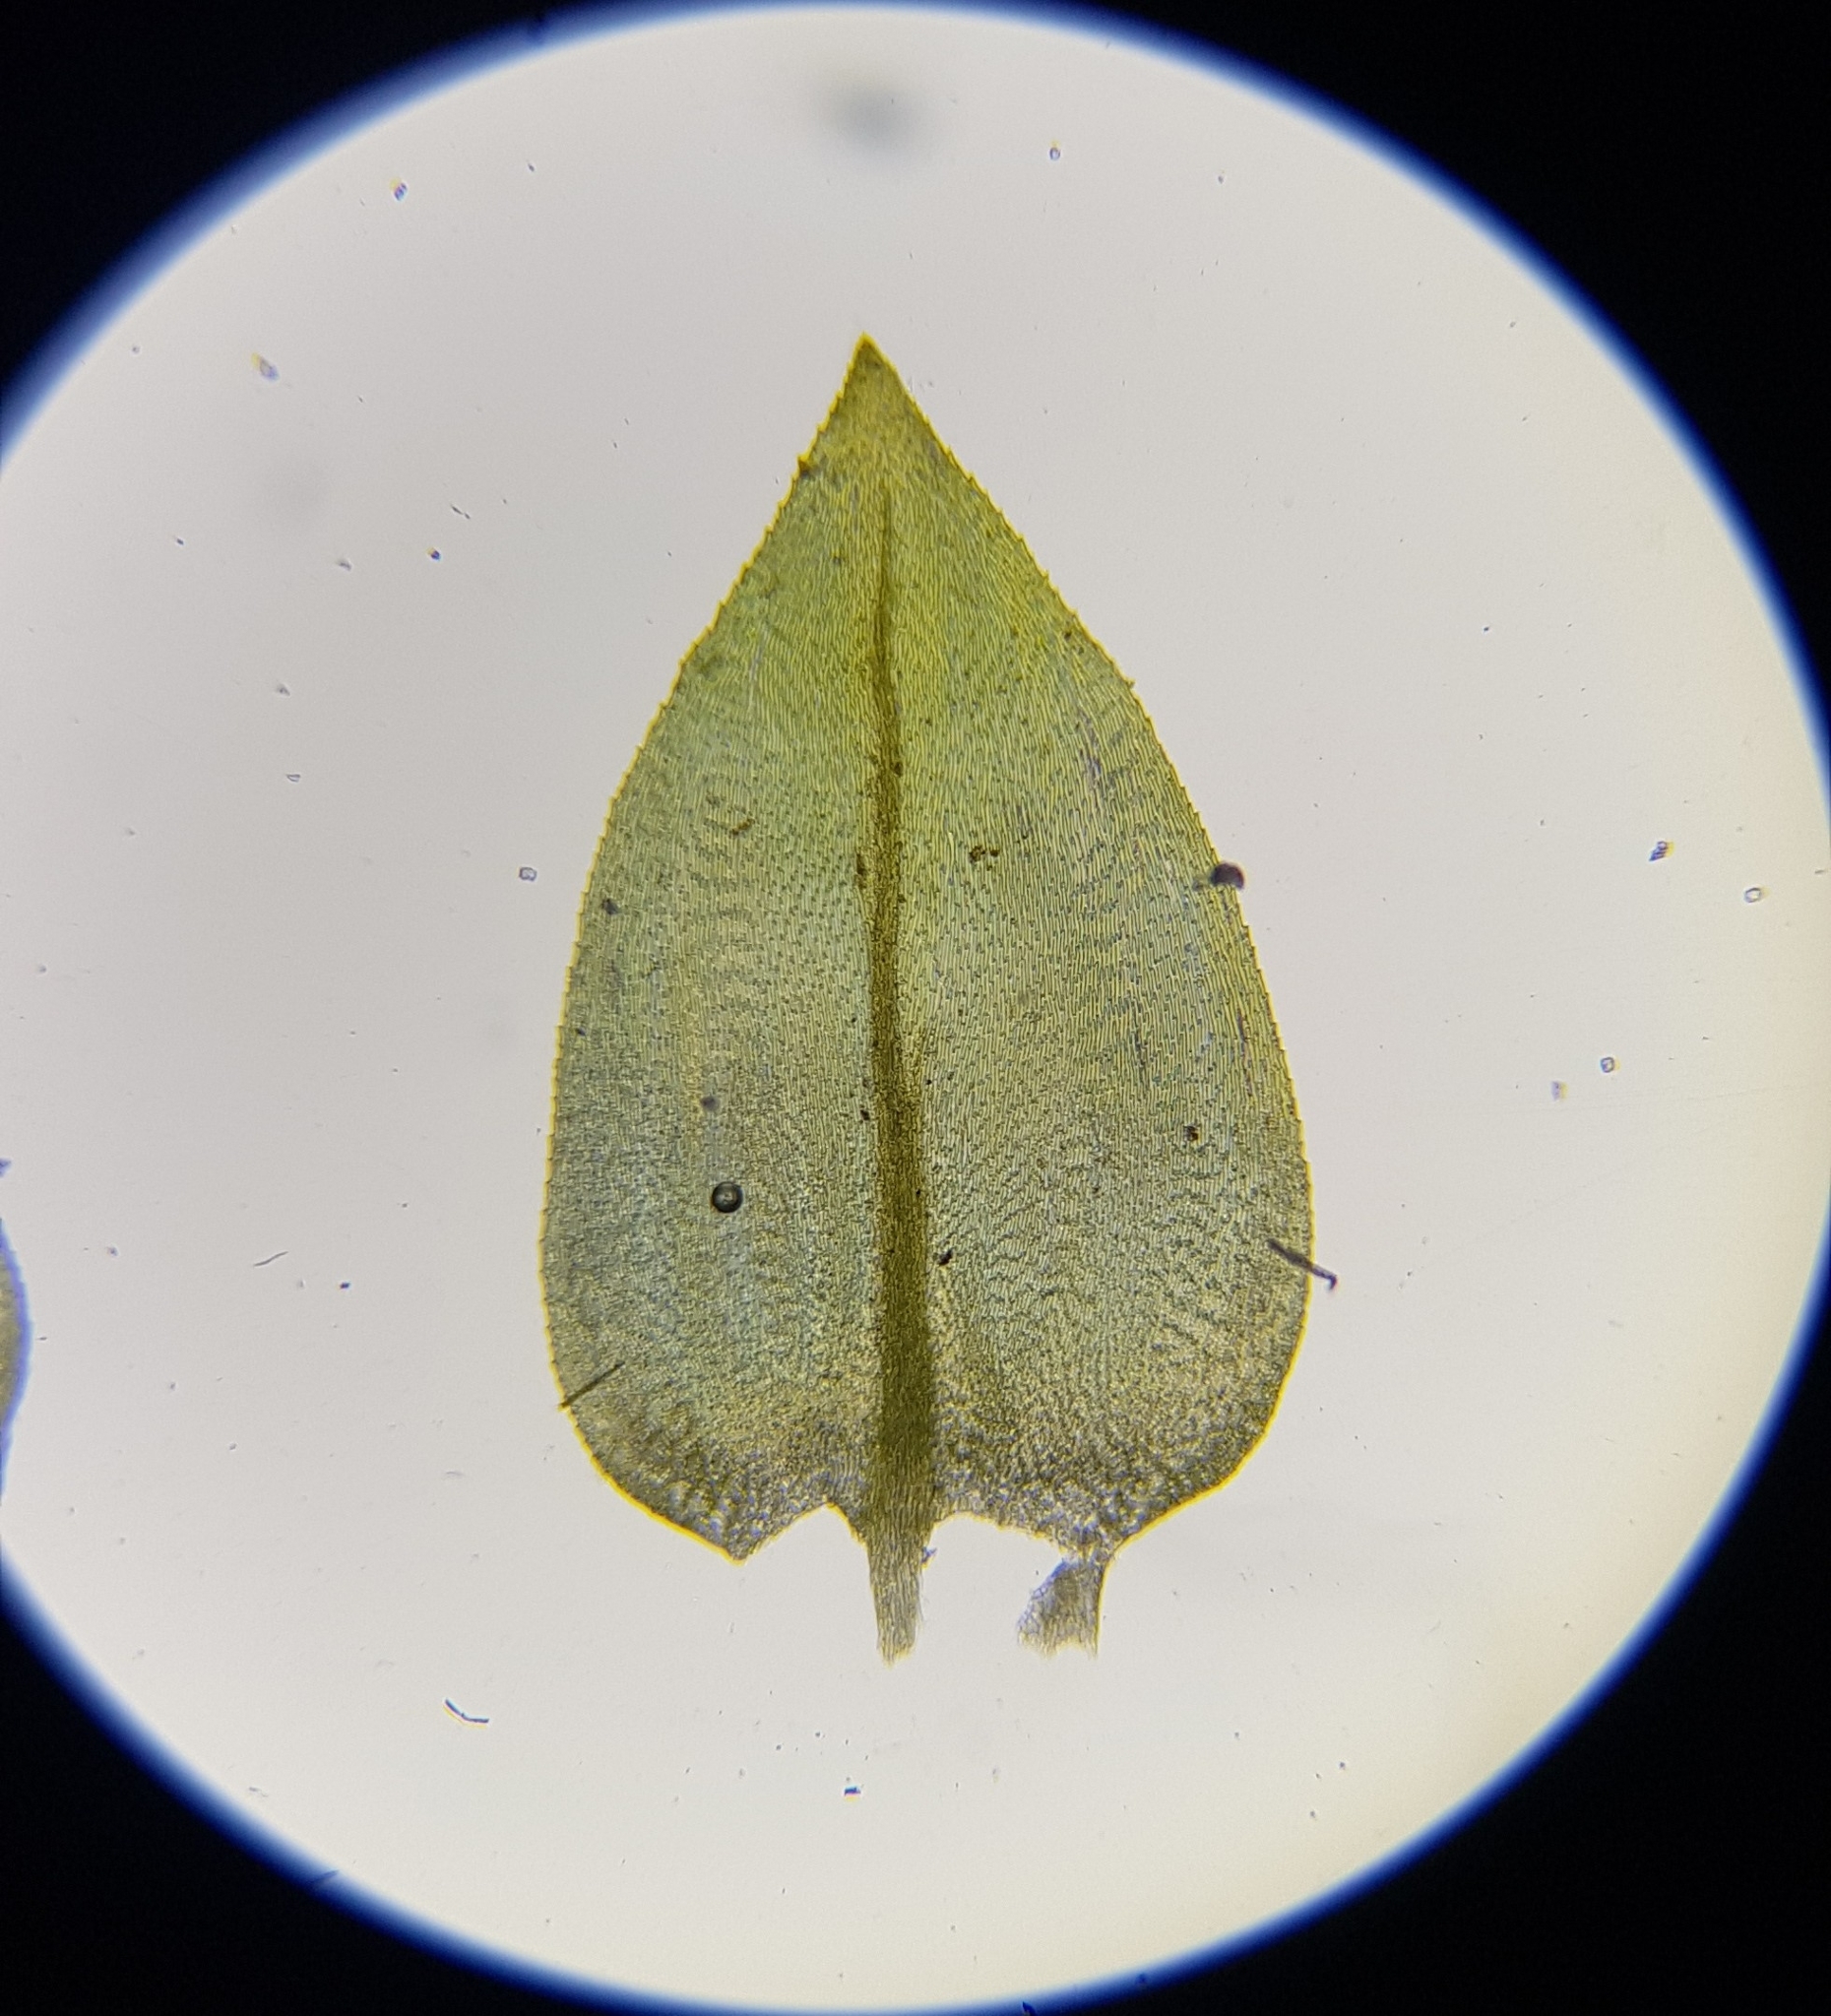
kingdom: Plantae
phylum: Bryophyta
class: Bryopsida
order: Hypnales
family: Brachytheciaceae
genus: Rhynchostegium
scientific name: Rhynchostegium riparioides
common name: Platyhypnidium moss
